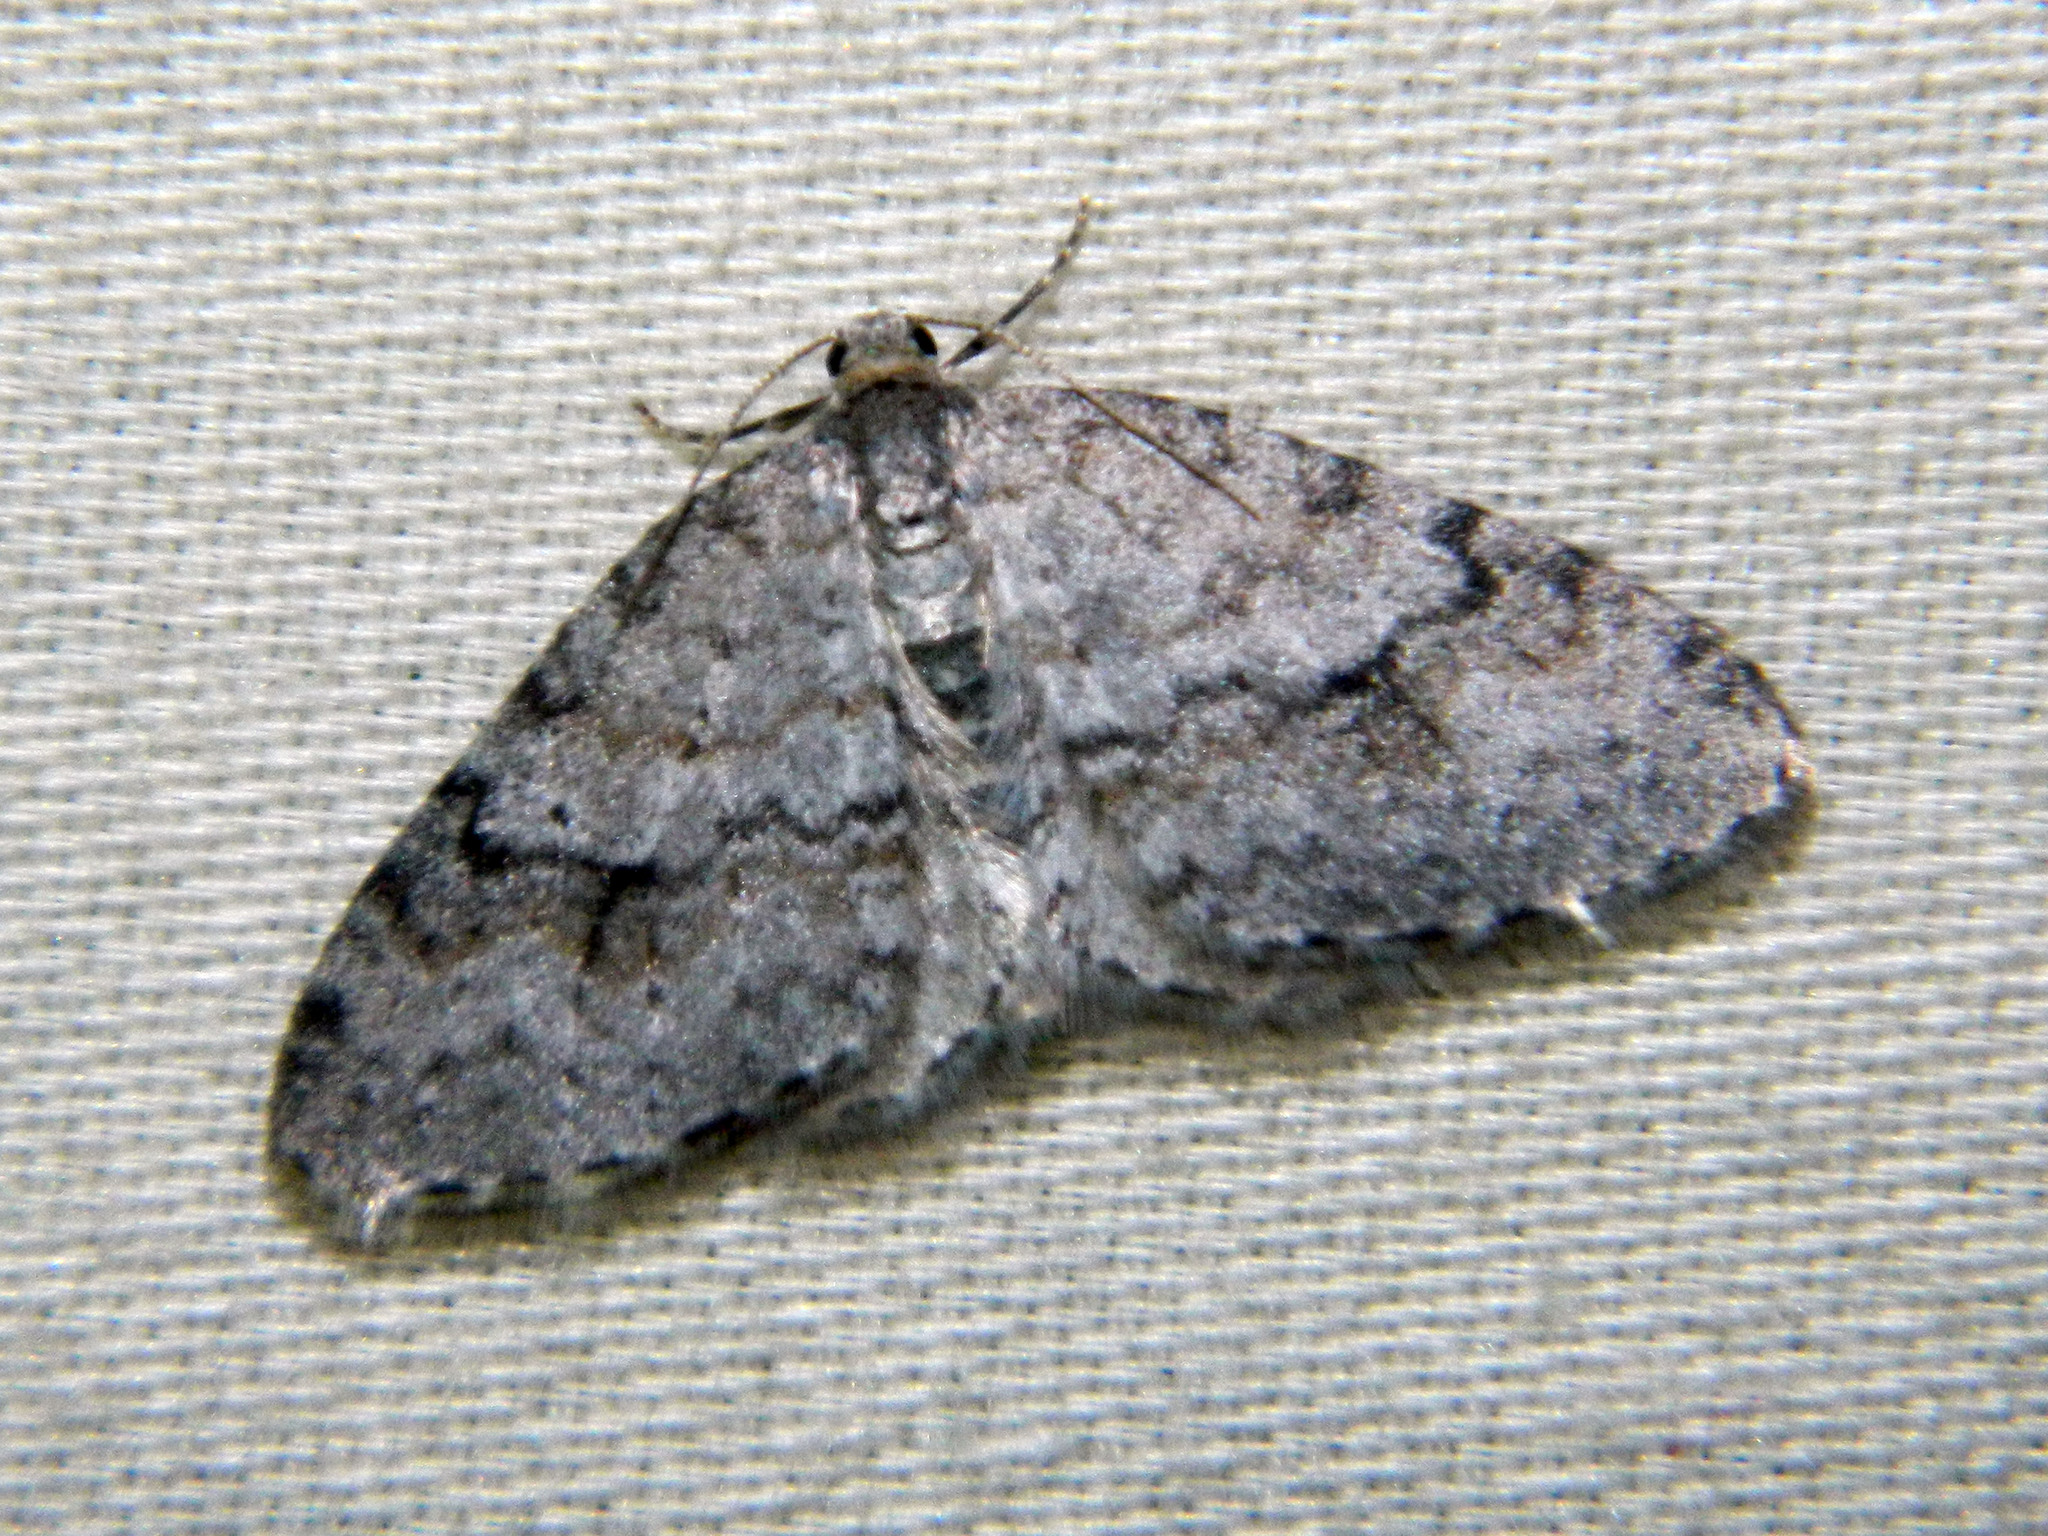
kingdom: Animalia
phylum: Arthropoda
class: Insecta
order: Lepidoptera
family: Geometridae
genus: Venusia
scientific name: Venusia comptaria
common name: Brown-shaded carpet
